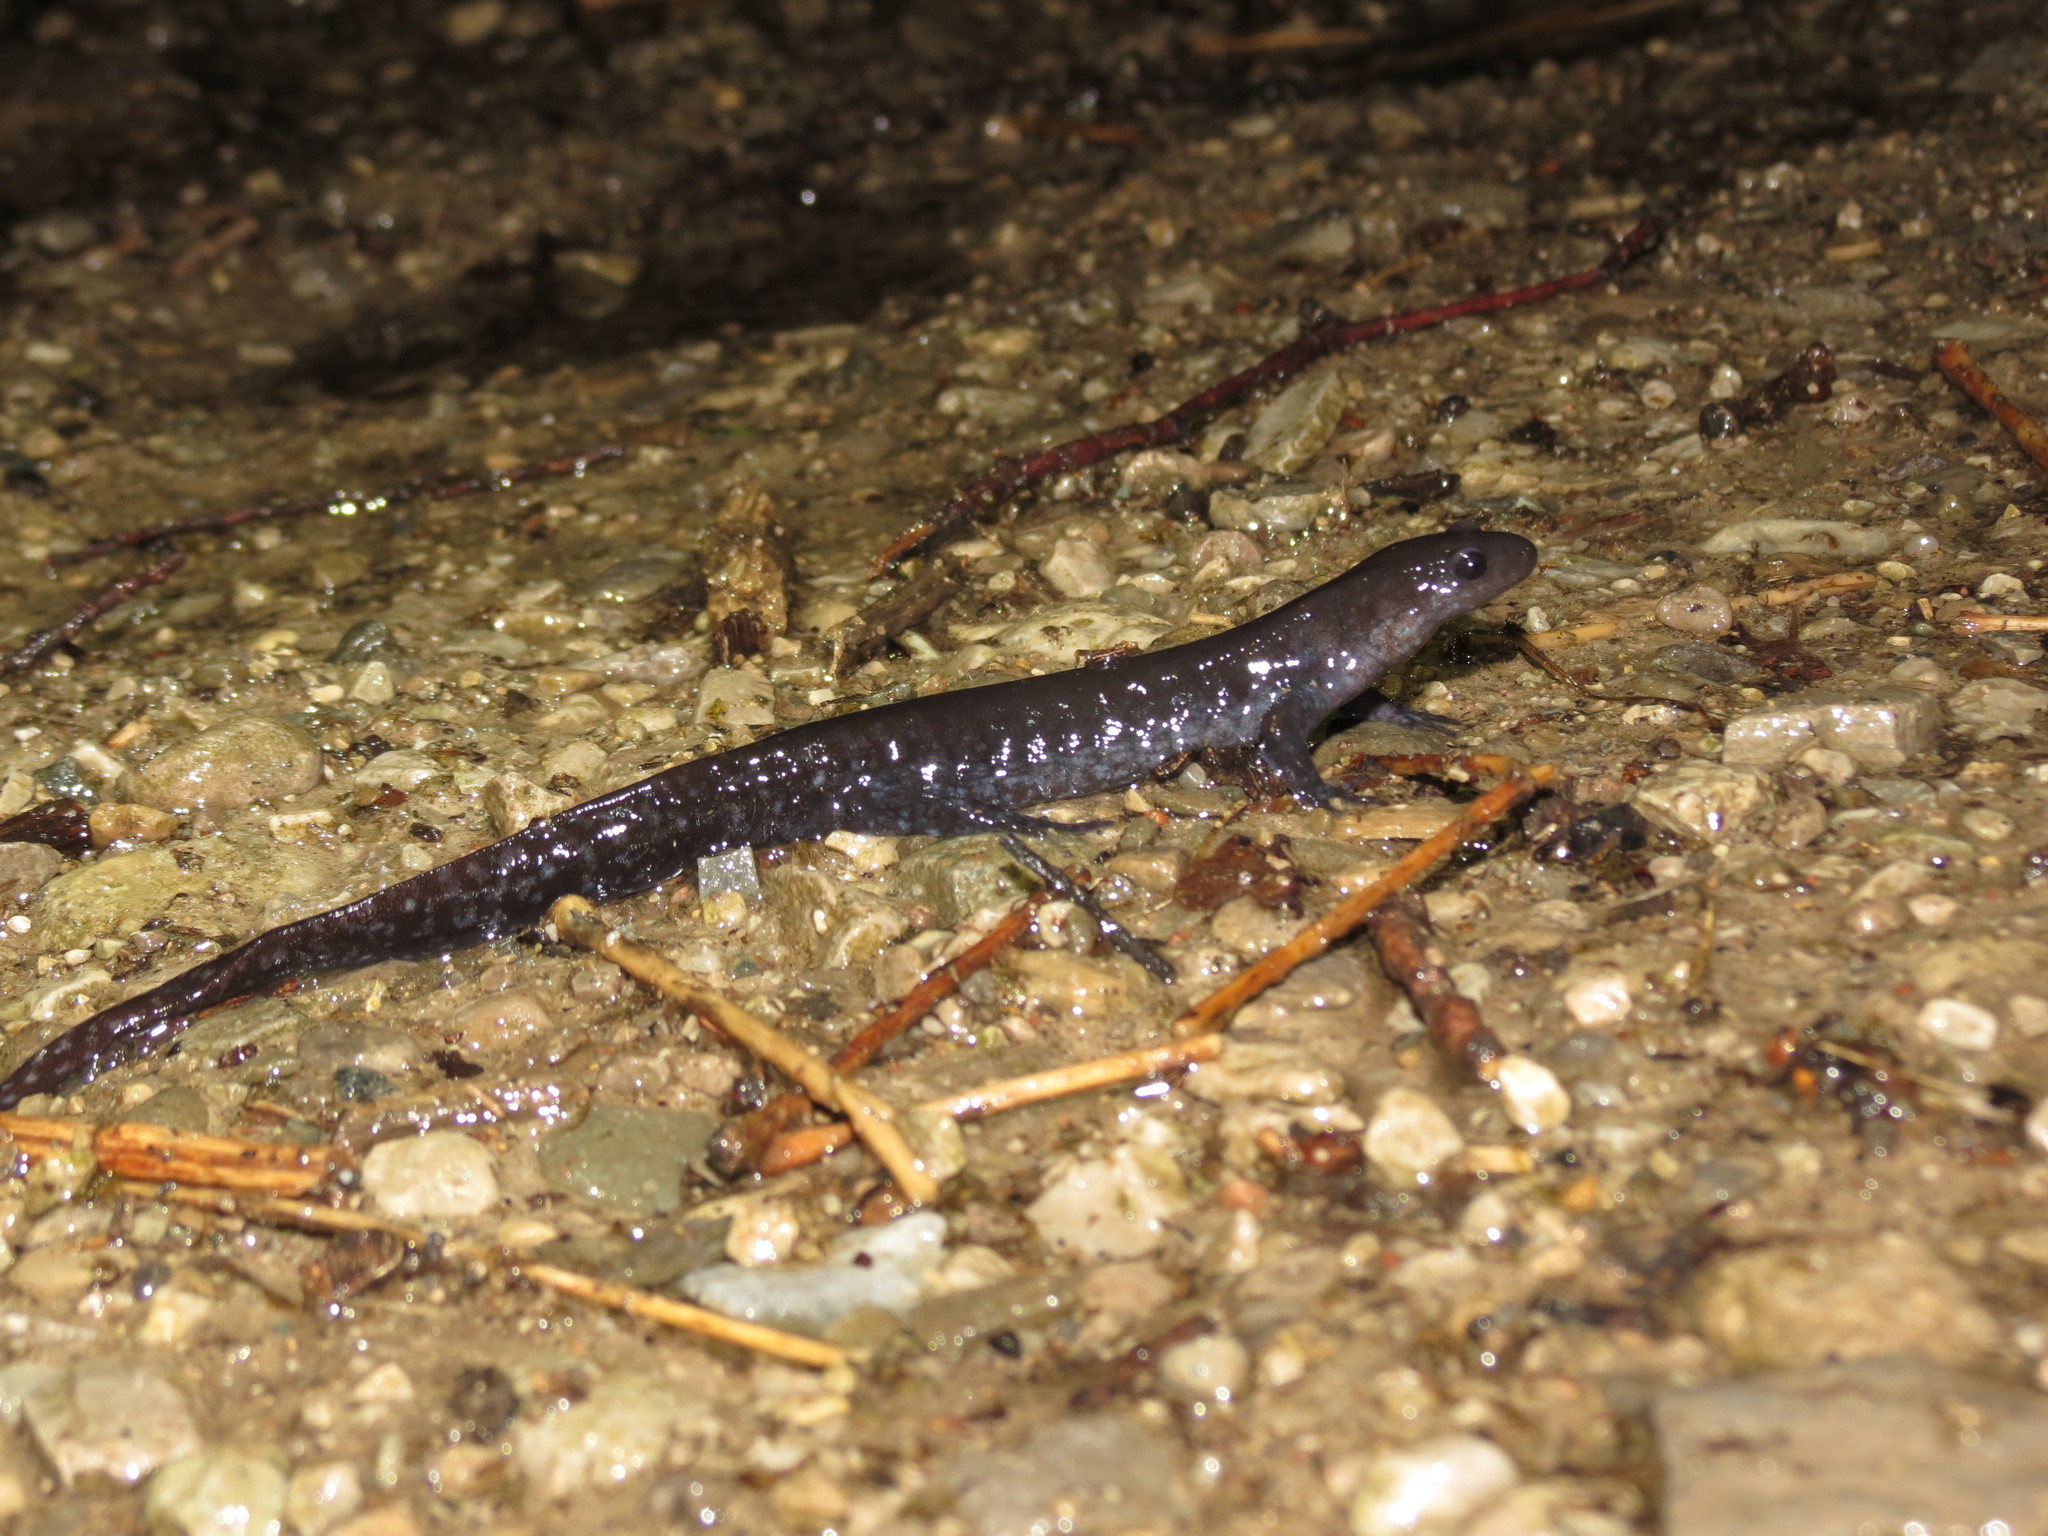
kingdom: Animalia
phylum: Chordata
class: Amphibia
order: Caudata
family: Ambystomatidae
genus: Ambystoma
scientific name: Ambystoma unisexual
